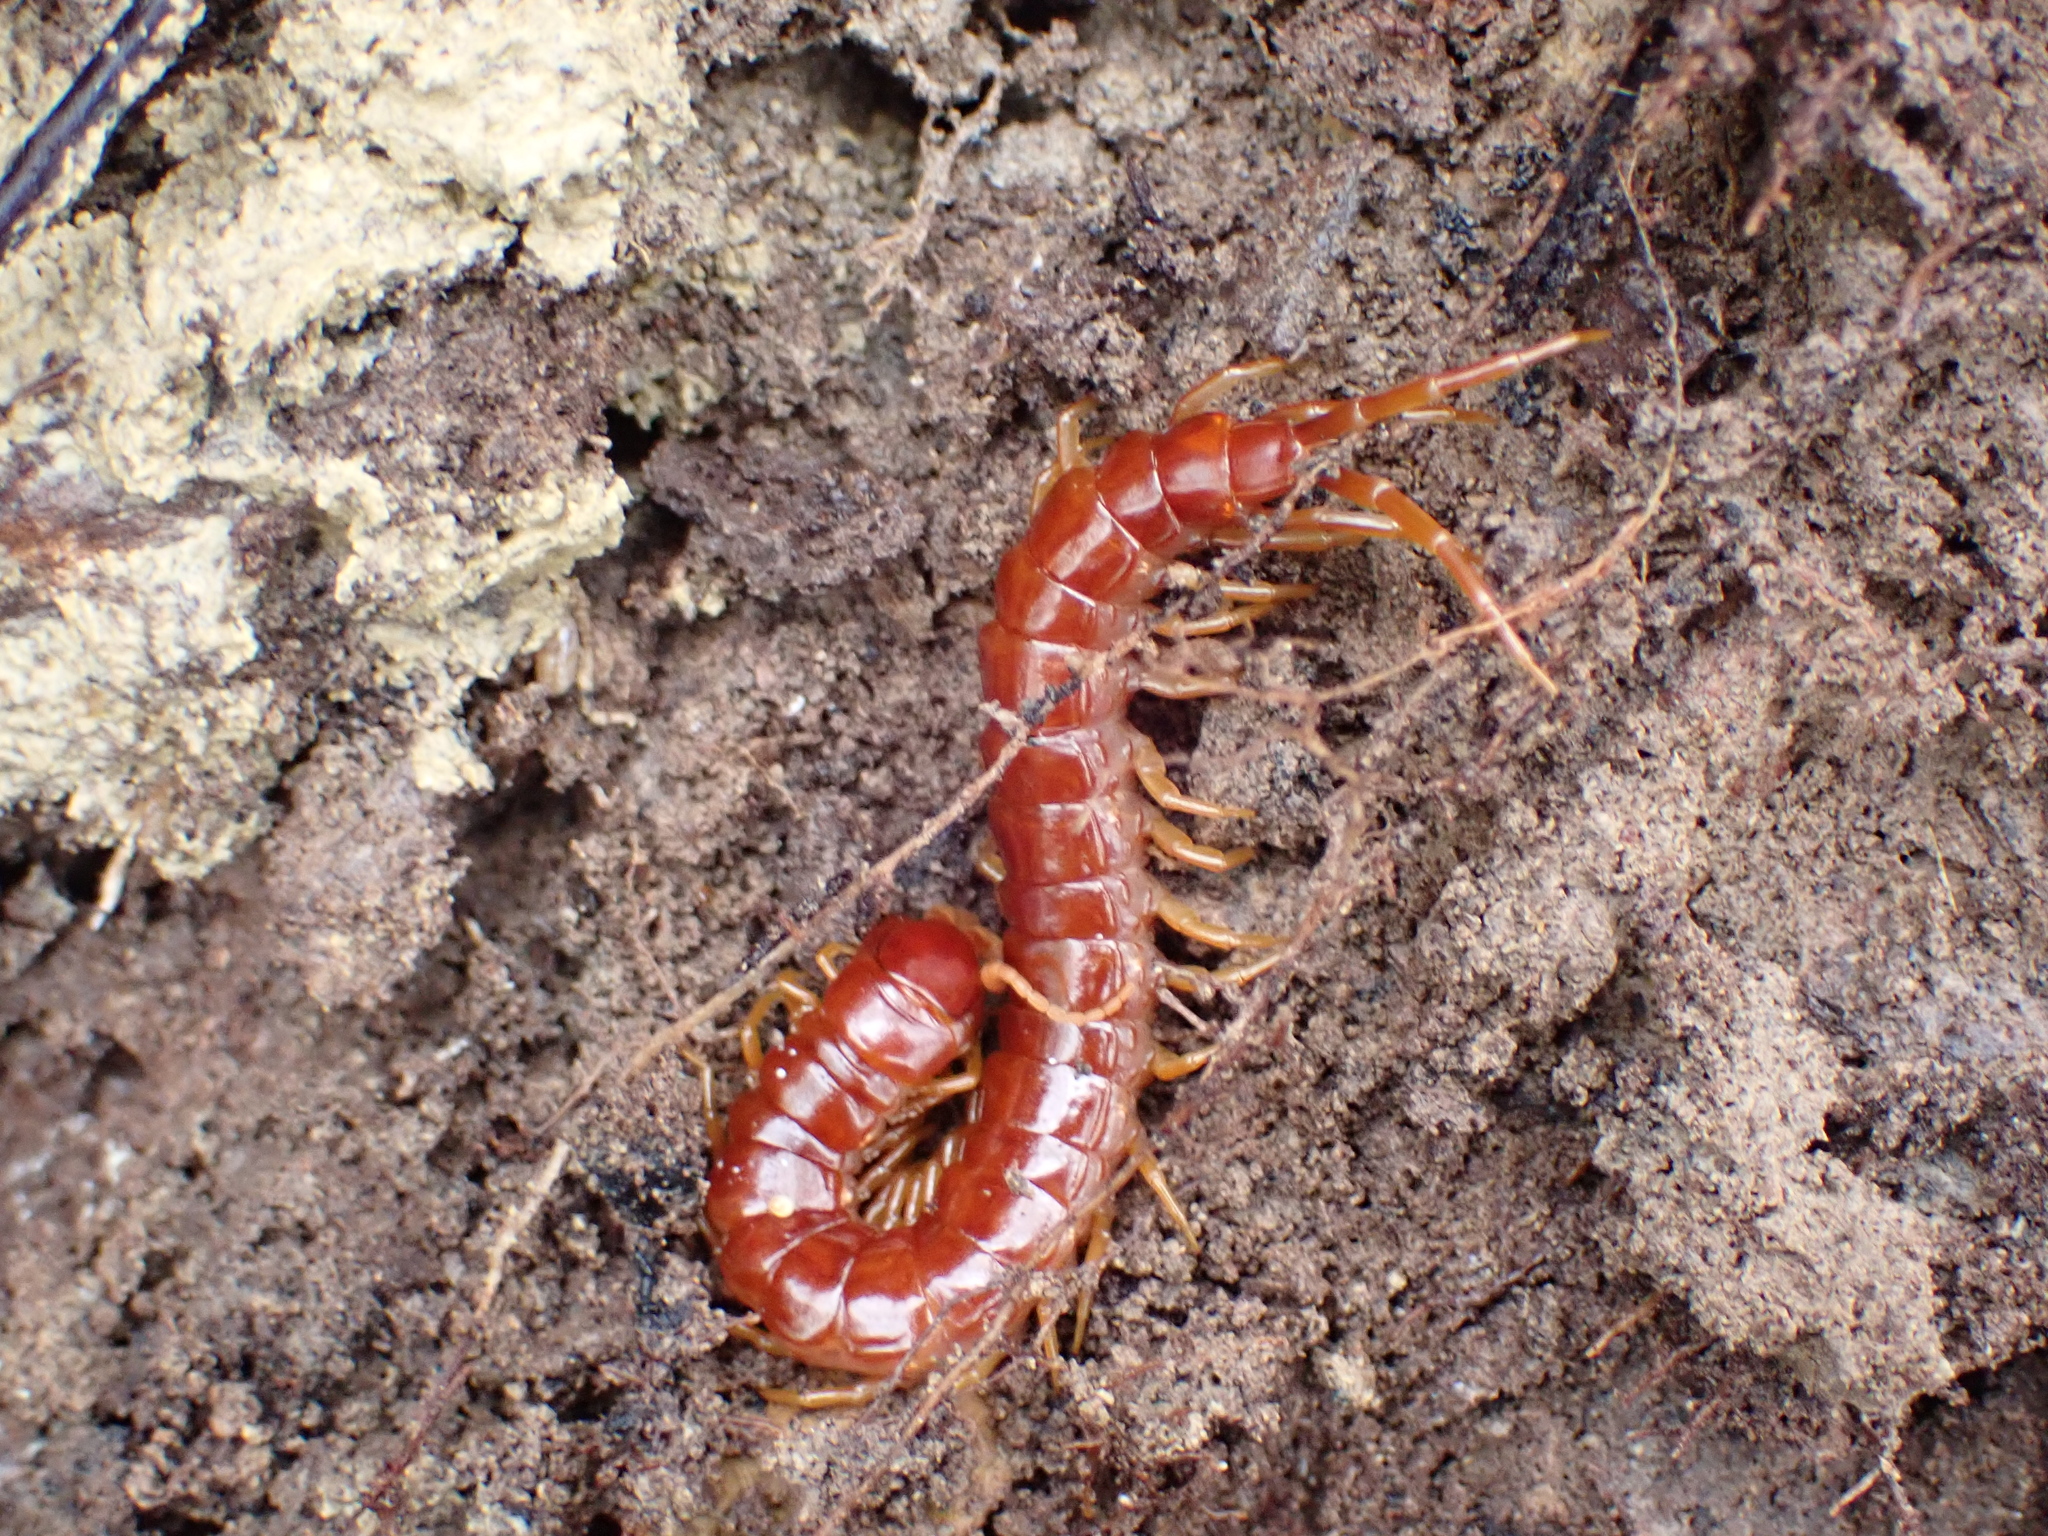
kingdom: Animalia
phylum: Arthropoda
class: Chilopoda
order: Scolopendromorpha
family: Scolopocryptopidae
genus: Scolopocryptops
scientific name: Scolopocryptops sexspinosus
